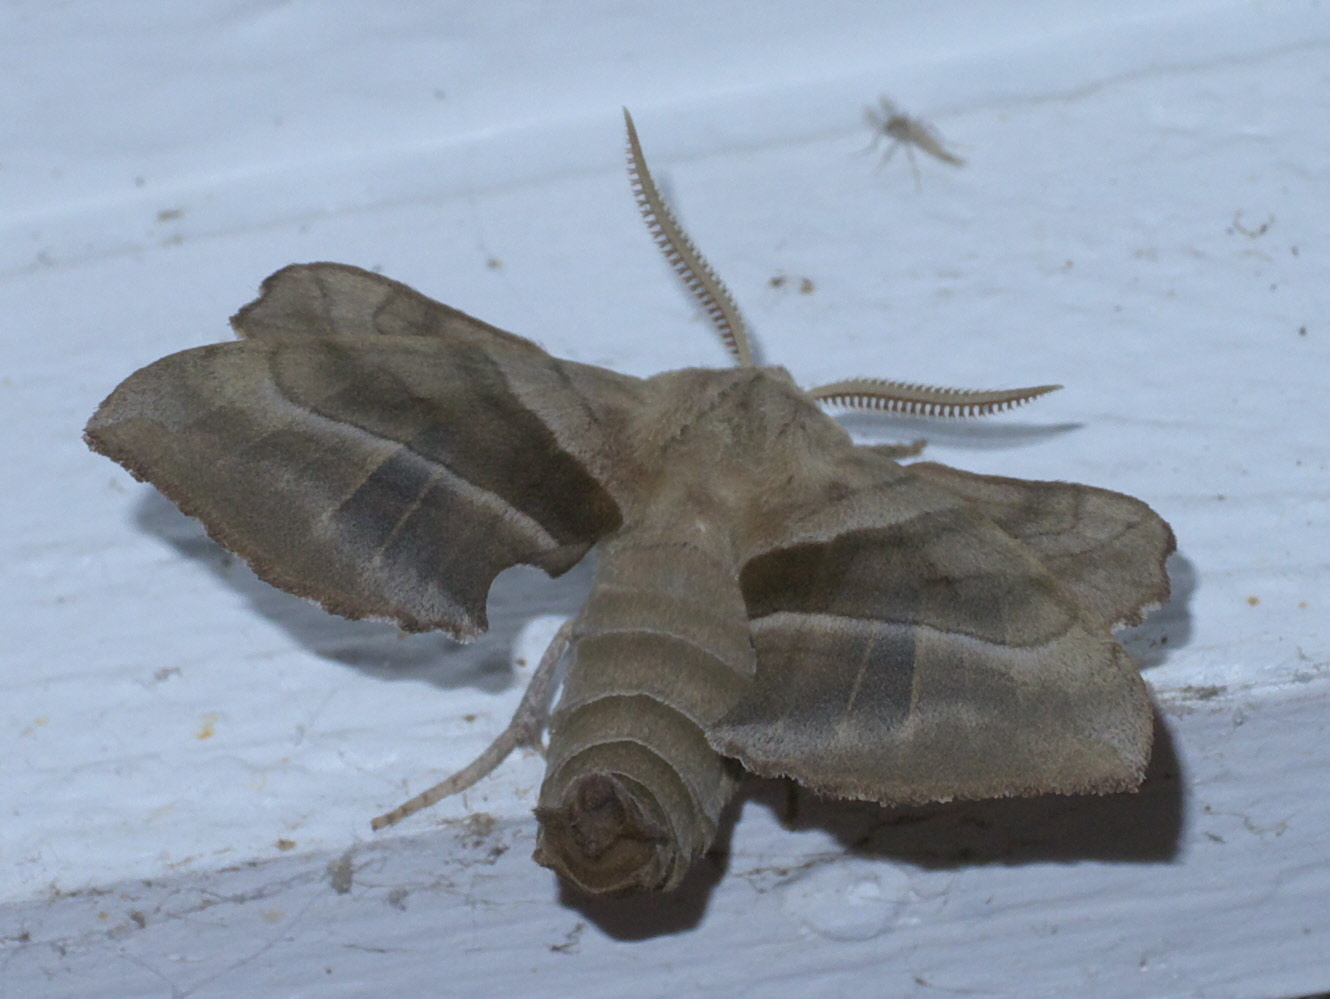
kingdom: Animalia
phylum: Arthropoda
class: Insecta
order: Lepidoptera
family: Sphingidae
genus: Amorpha
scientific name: Amorpha juglandis
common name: Walnut sphinx
